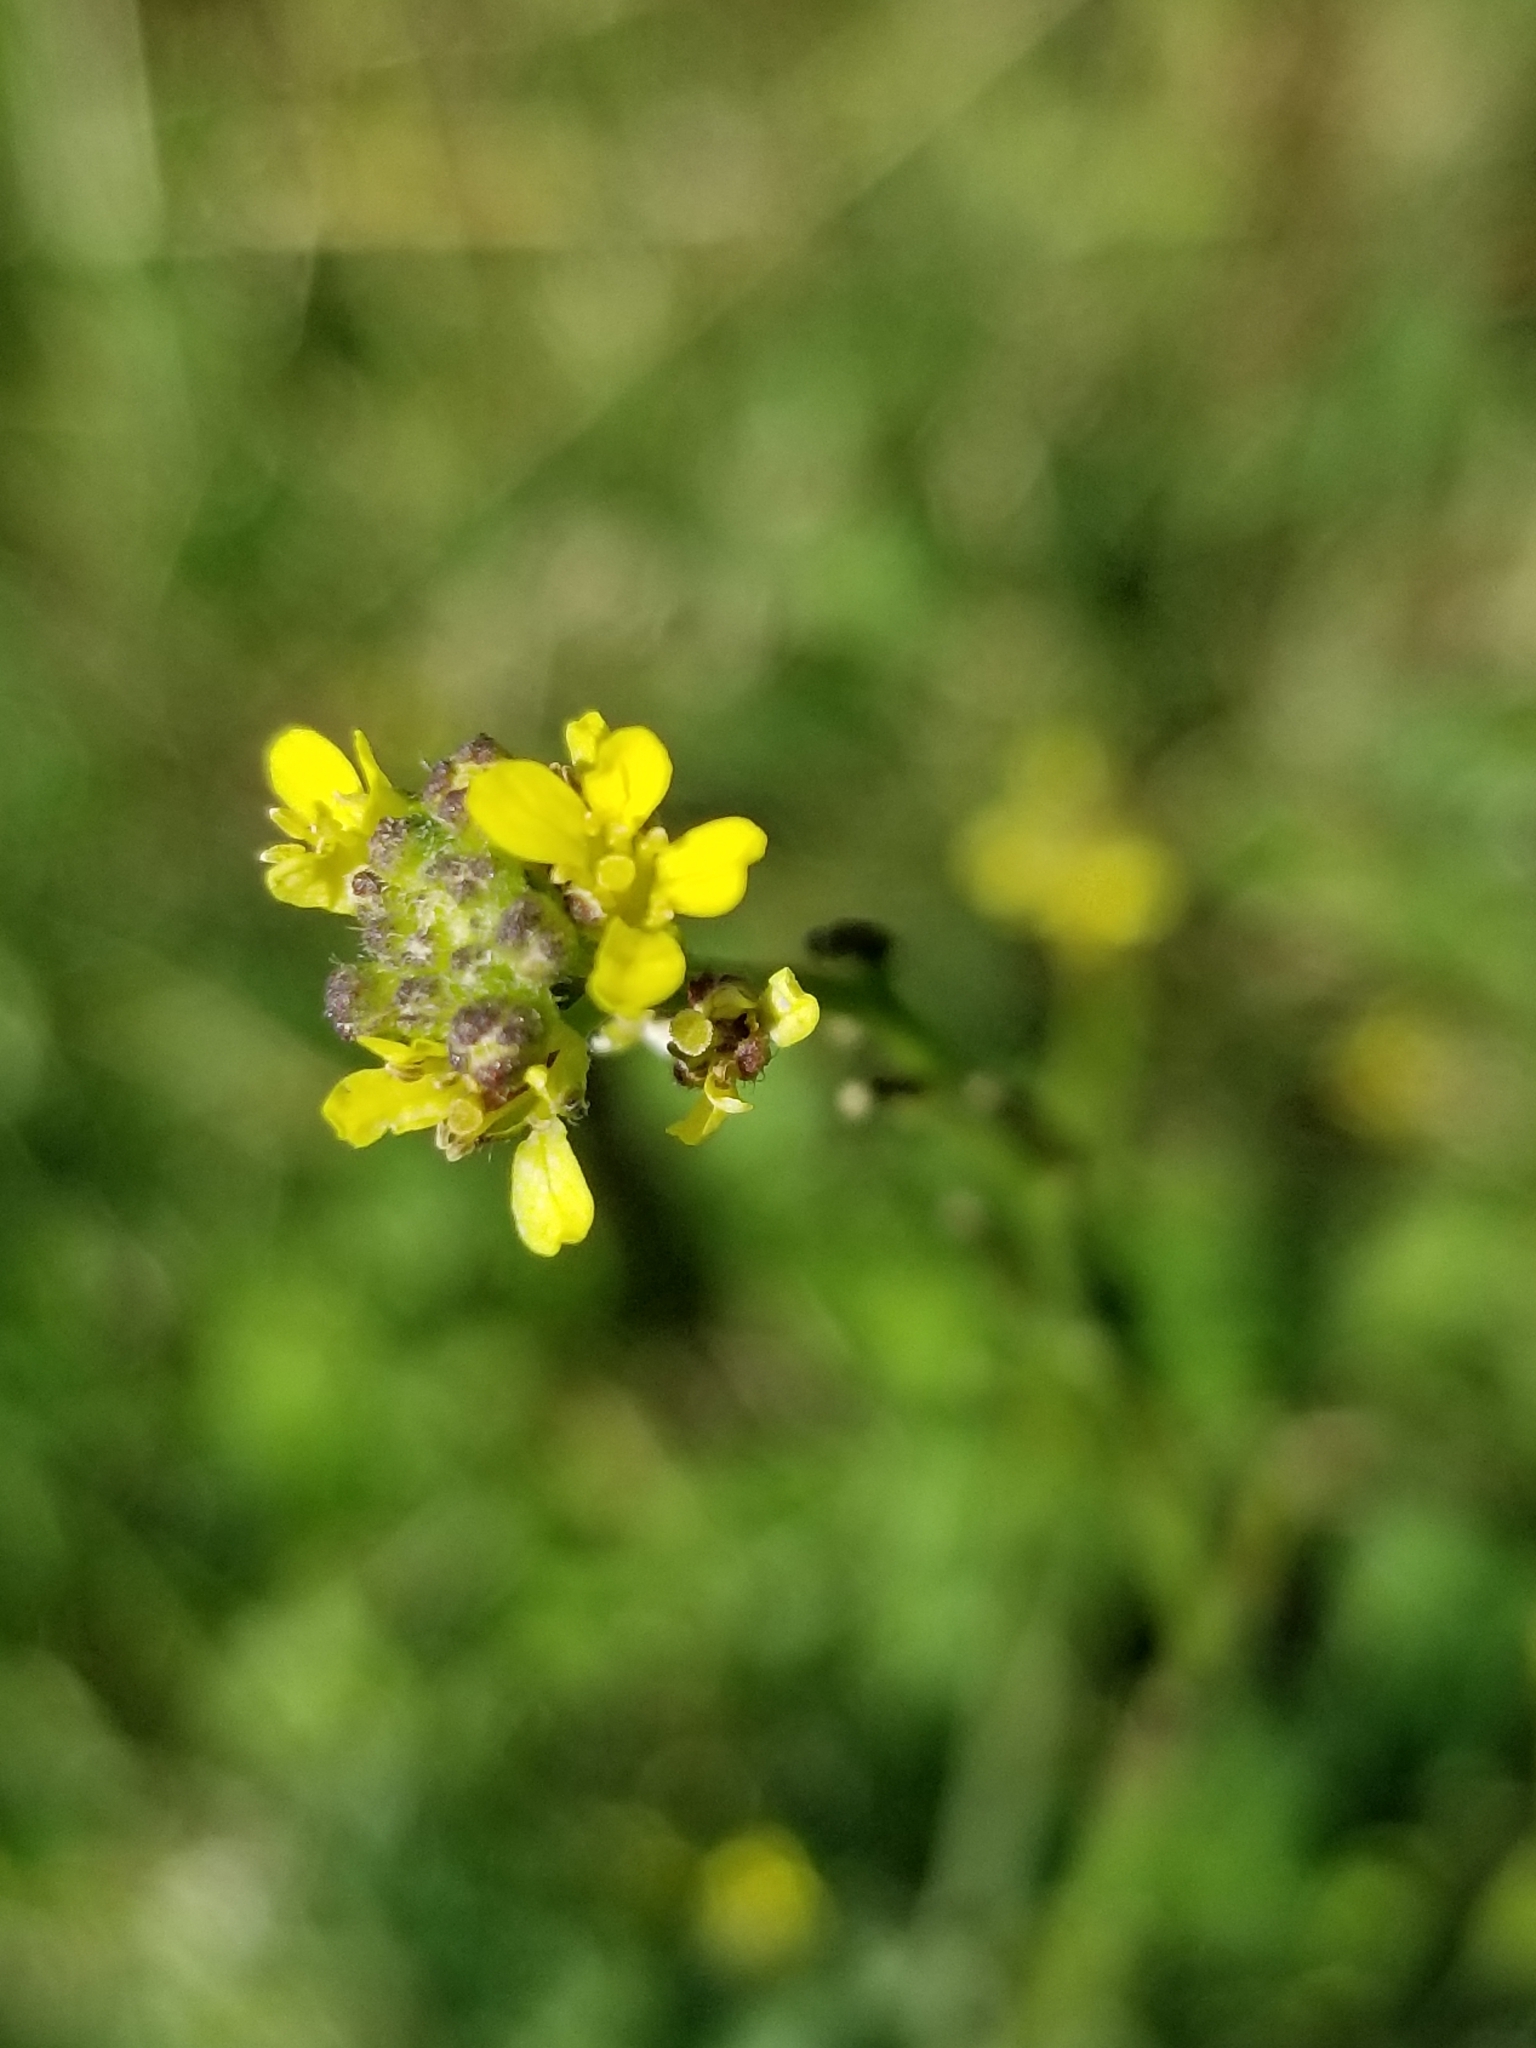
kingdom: Plantae
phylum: Tracheophyta
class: Magnoliopsida
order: Brassicales
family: Brassicaceae
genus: Sisymbrium
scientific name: Sisymbrium officinale
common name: Hedge mustard
